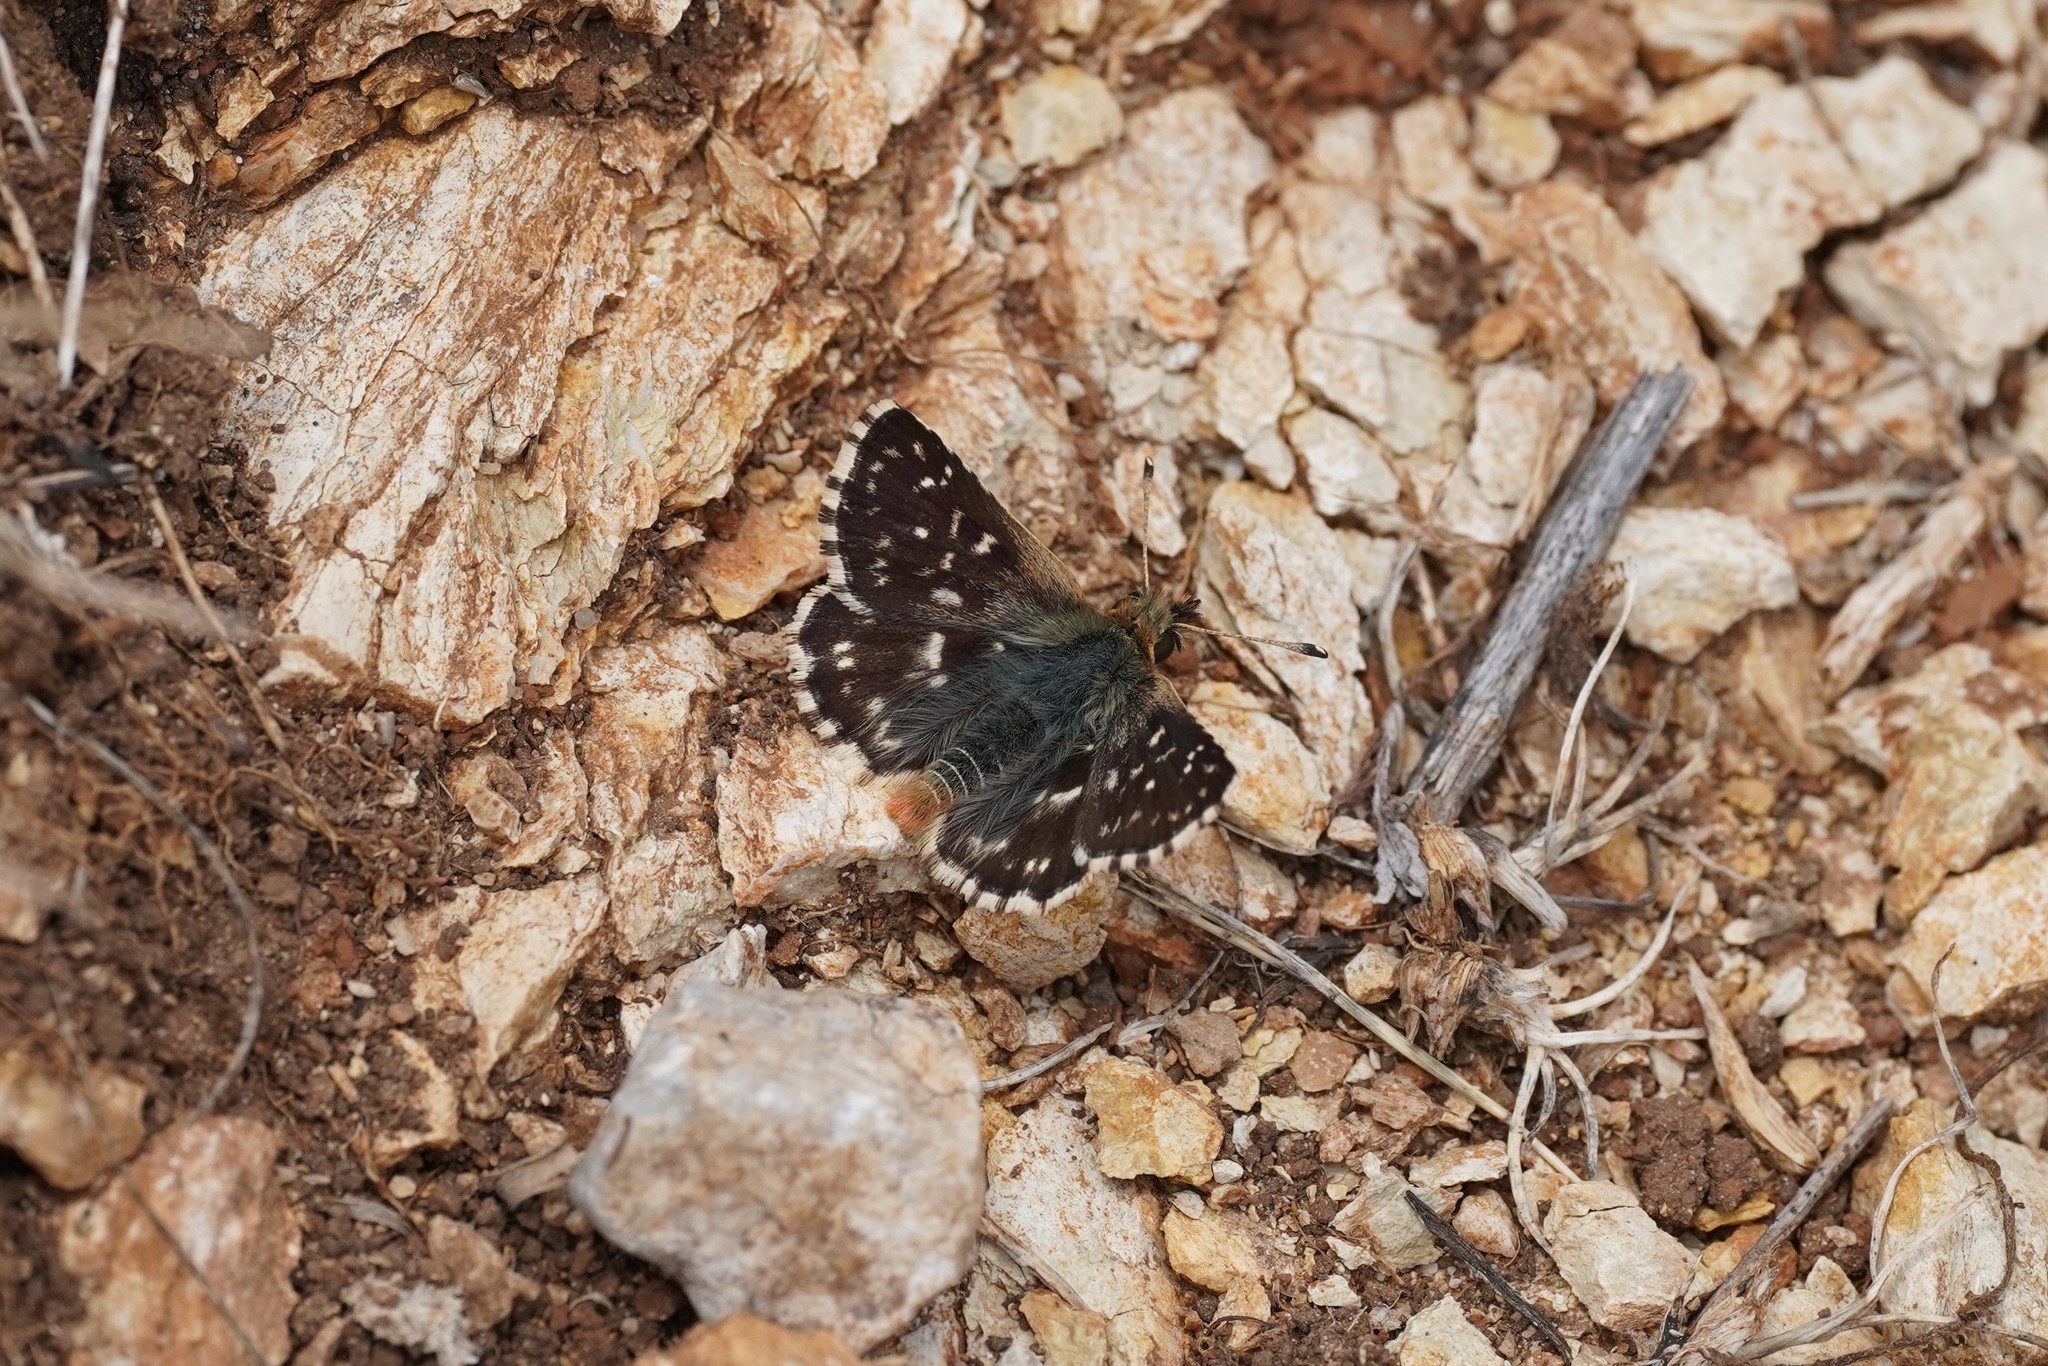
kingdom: Animalia
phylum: Arthropoda
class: Insecta
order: Lepidoptera
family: Hesperiidae
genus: Spialia
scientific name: Spialia sertorius
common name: Red underwing skipper
